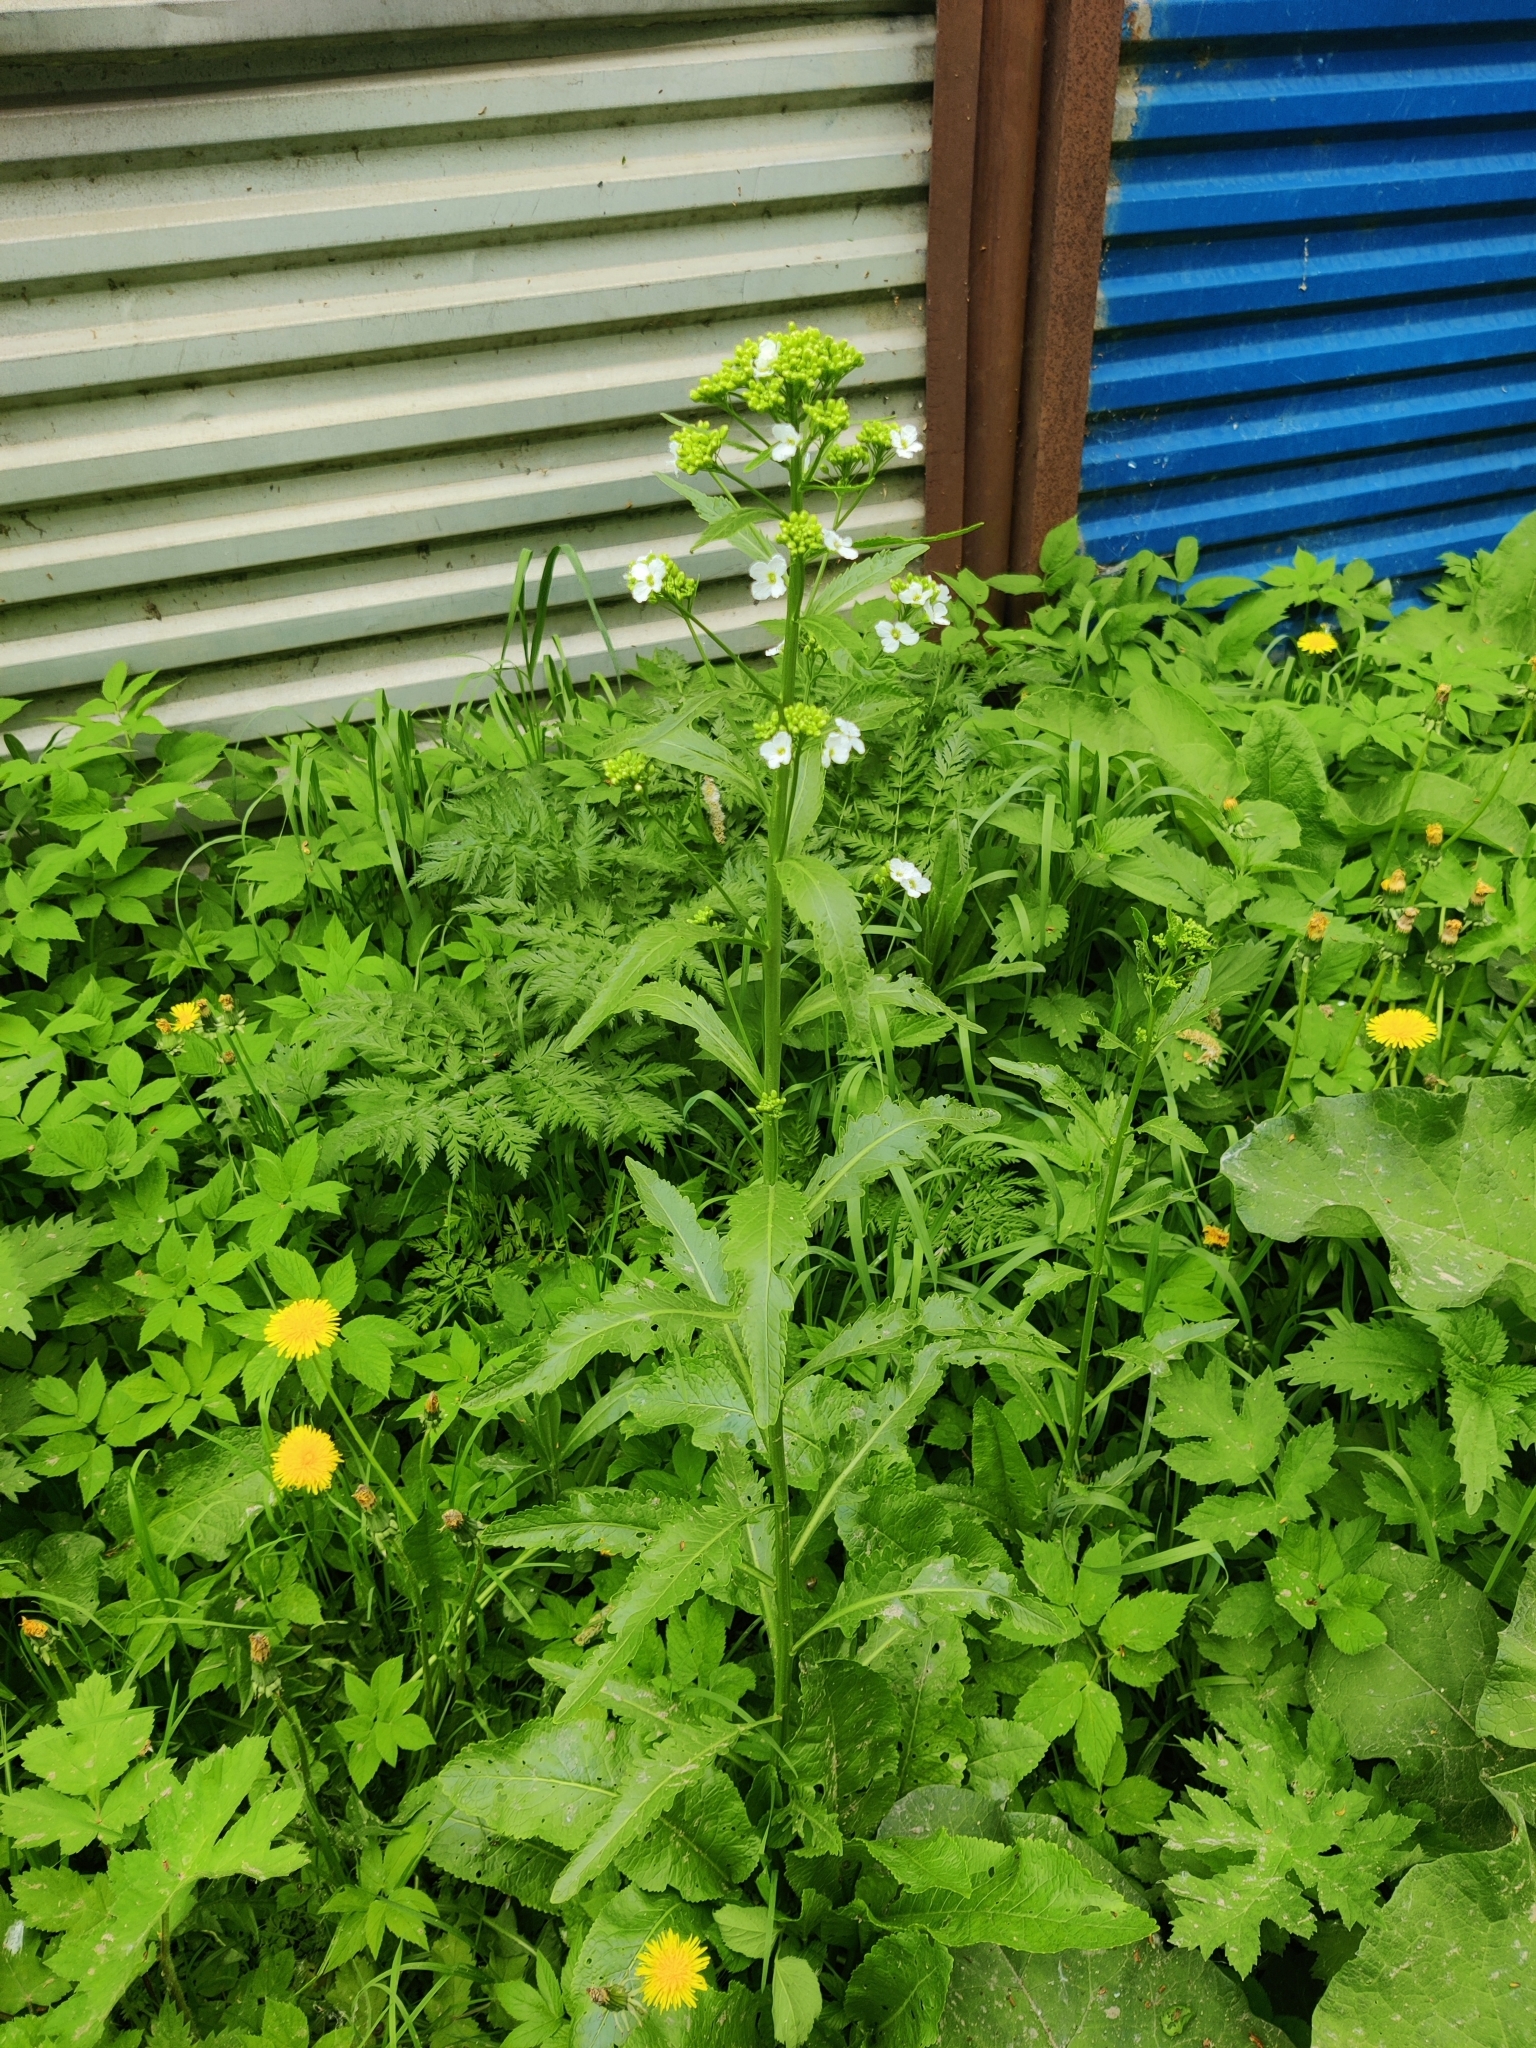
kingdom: Plantae
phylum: Tracheophyta
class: Magnoliopsida
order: Brassicales
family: Brassicaceae
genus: Armoracia
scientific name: Armoracia rusticana
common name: Horseradish
